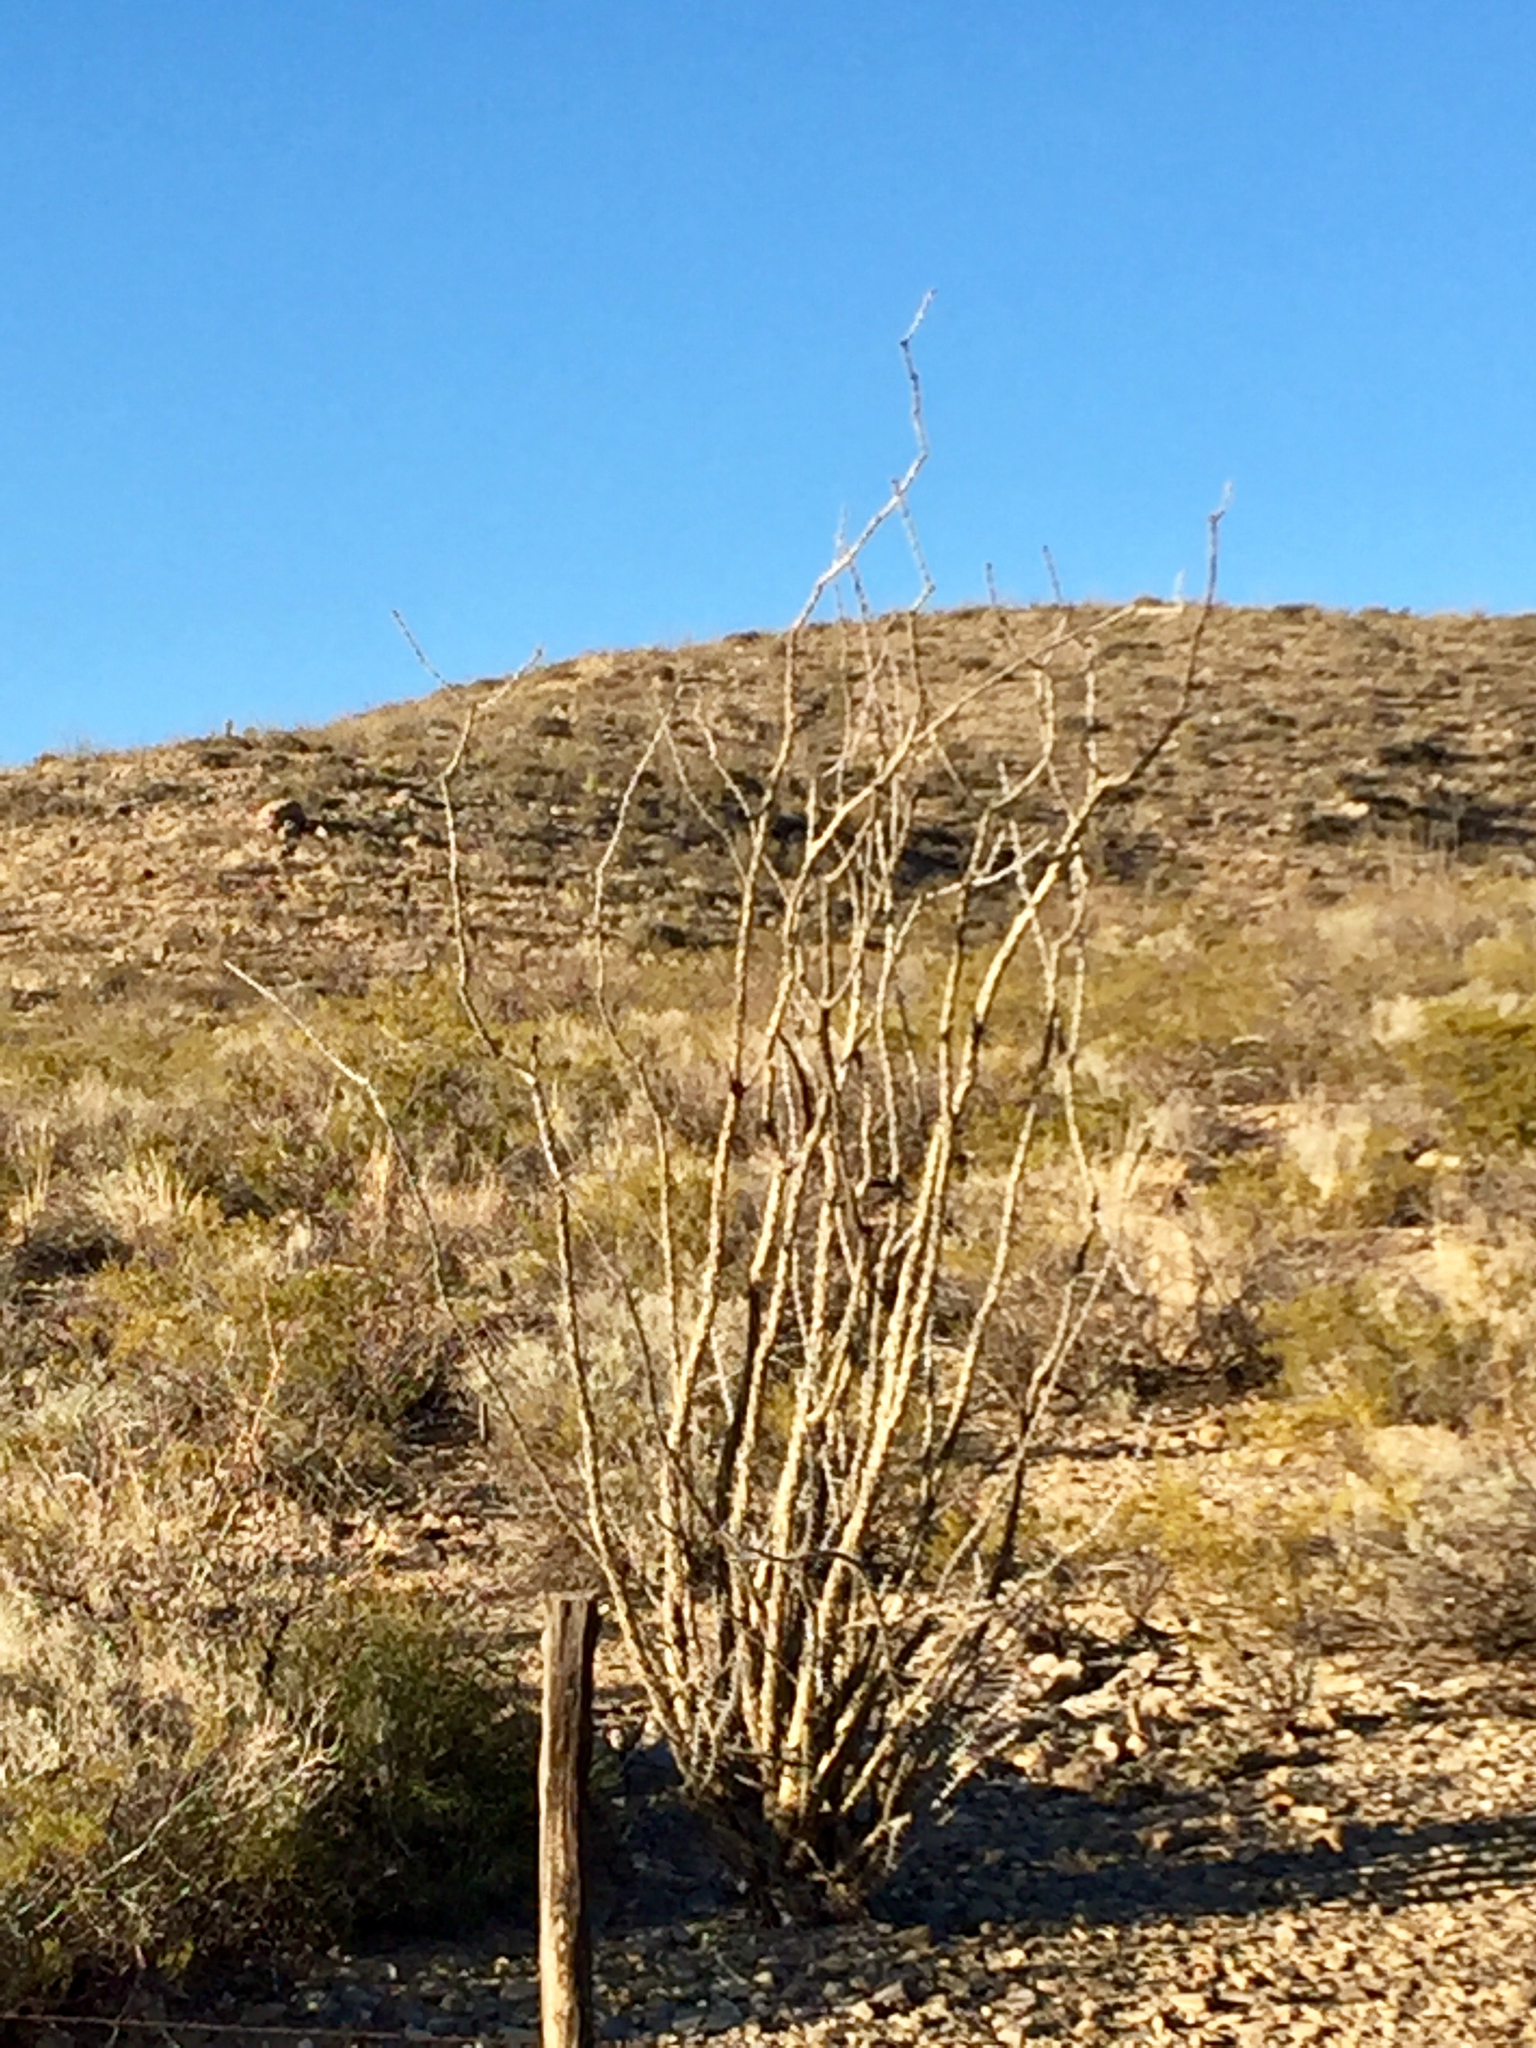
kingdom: Plantae
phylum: Tracheophyta
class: Magnoliopsida
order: Ericales
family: Fouquieriaceae
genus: Fouquieria
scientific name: Fouquieria splendens
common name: Vine-cactus
